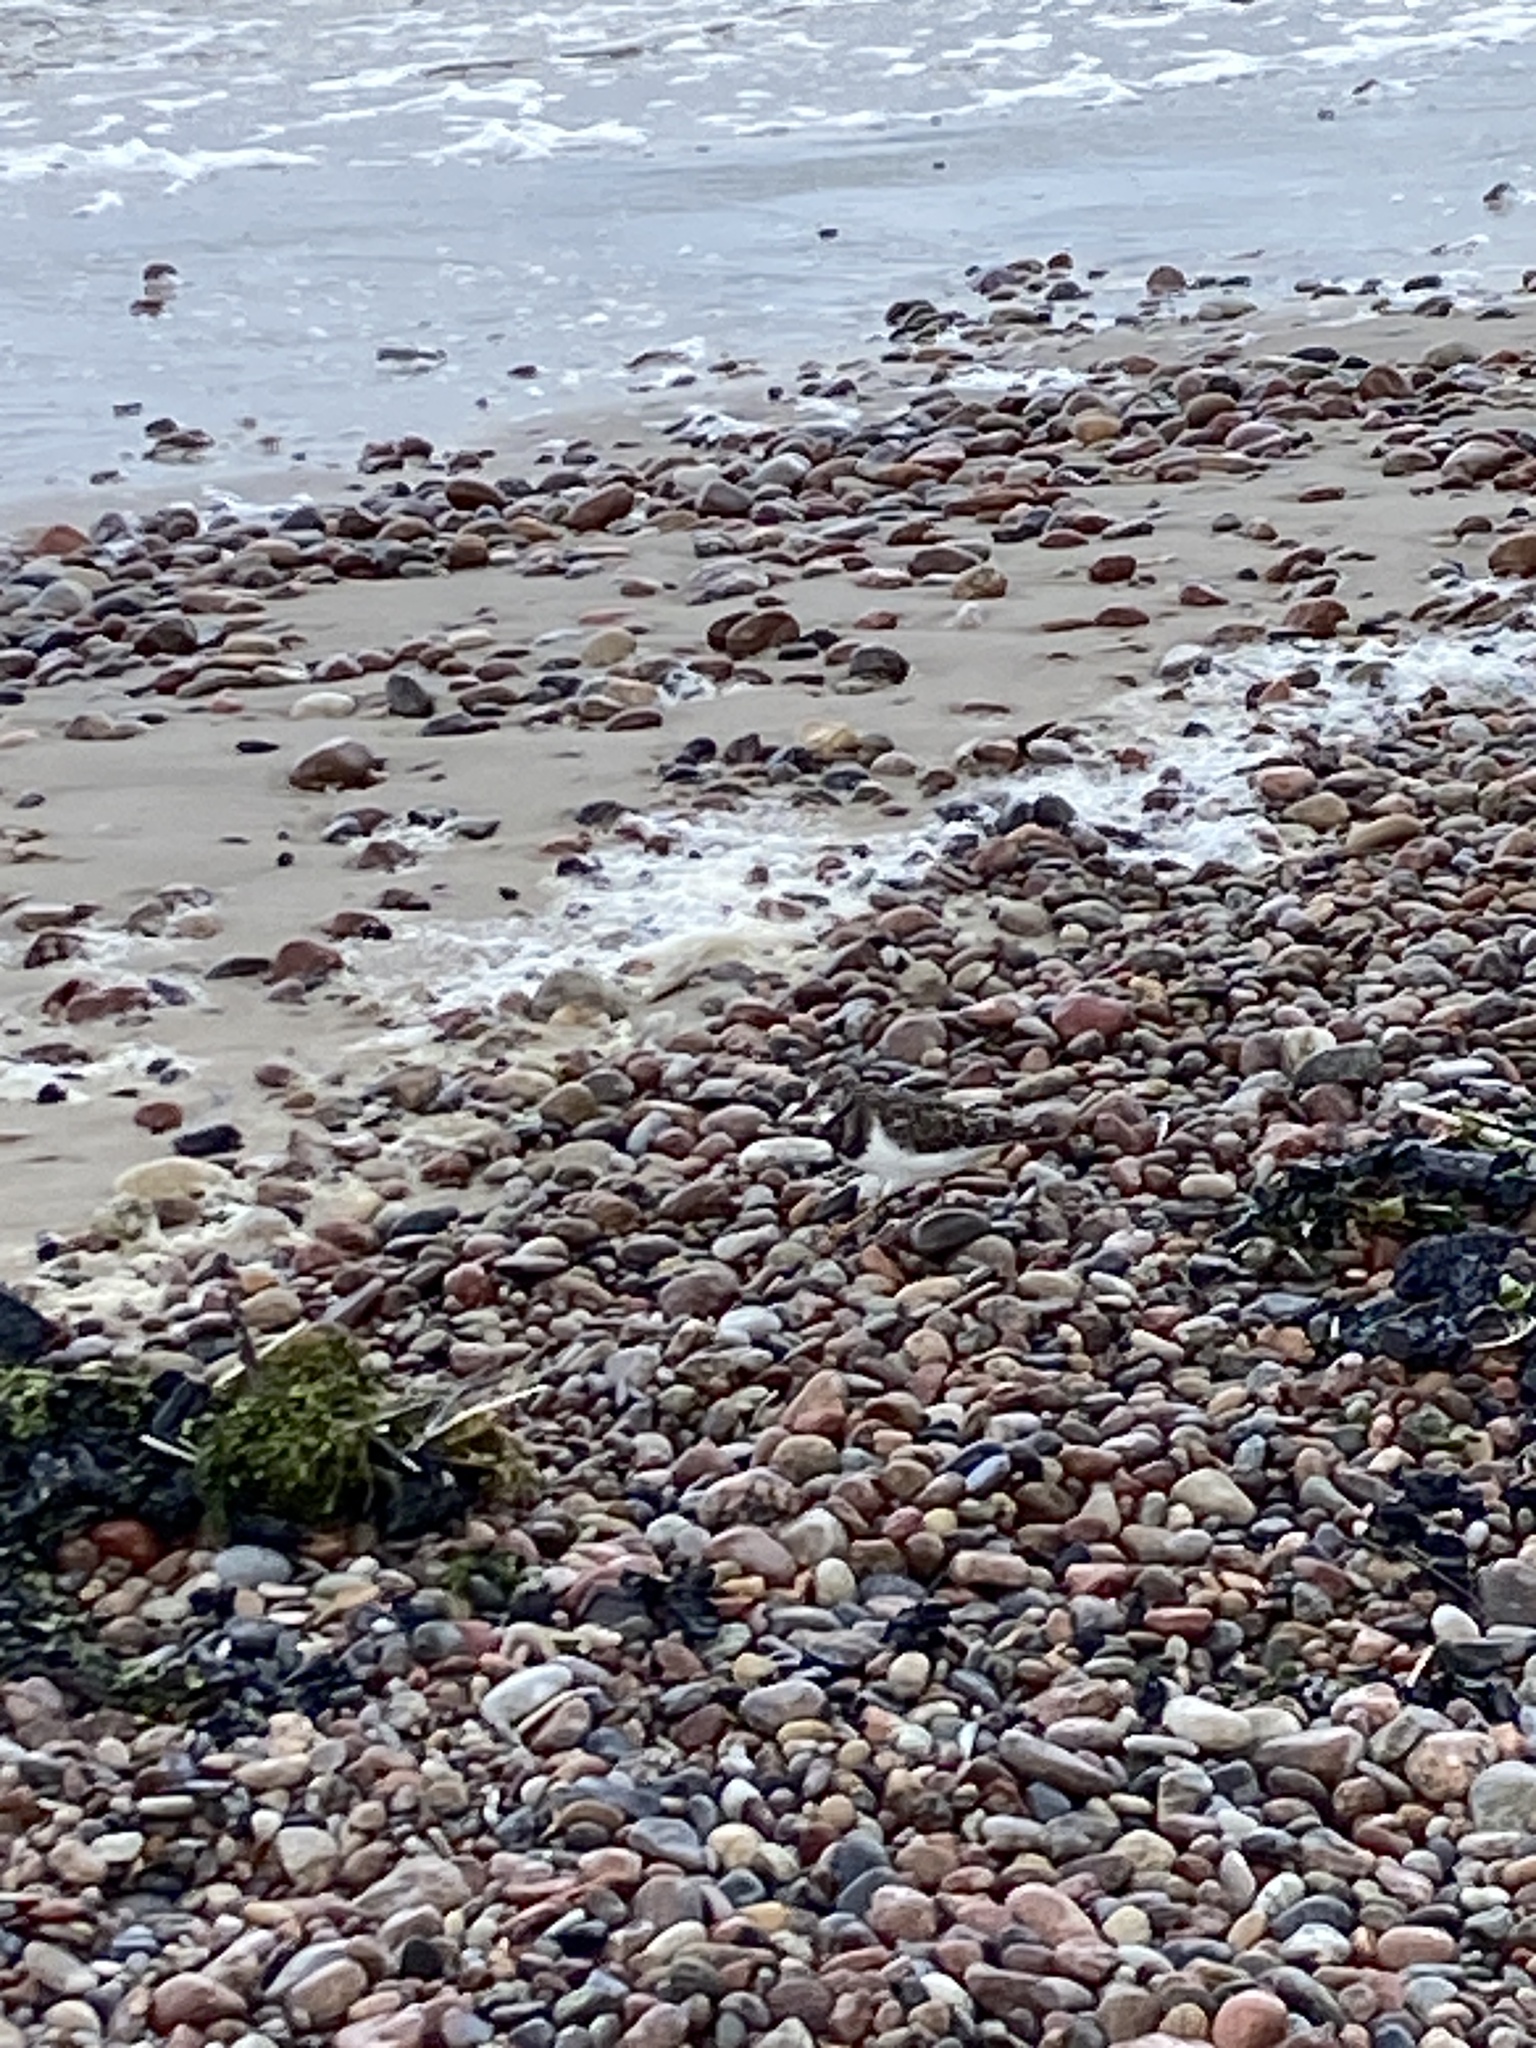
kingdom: Animalia
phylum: Chordata
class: Aves
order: Charadriiformes
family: Scolopacidae
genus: Arenaria
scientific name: Arenaria interpres
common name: Ruddy turnstone
